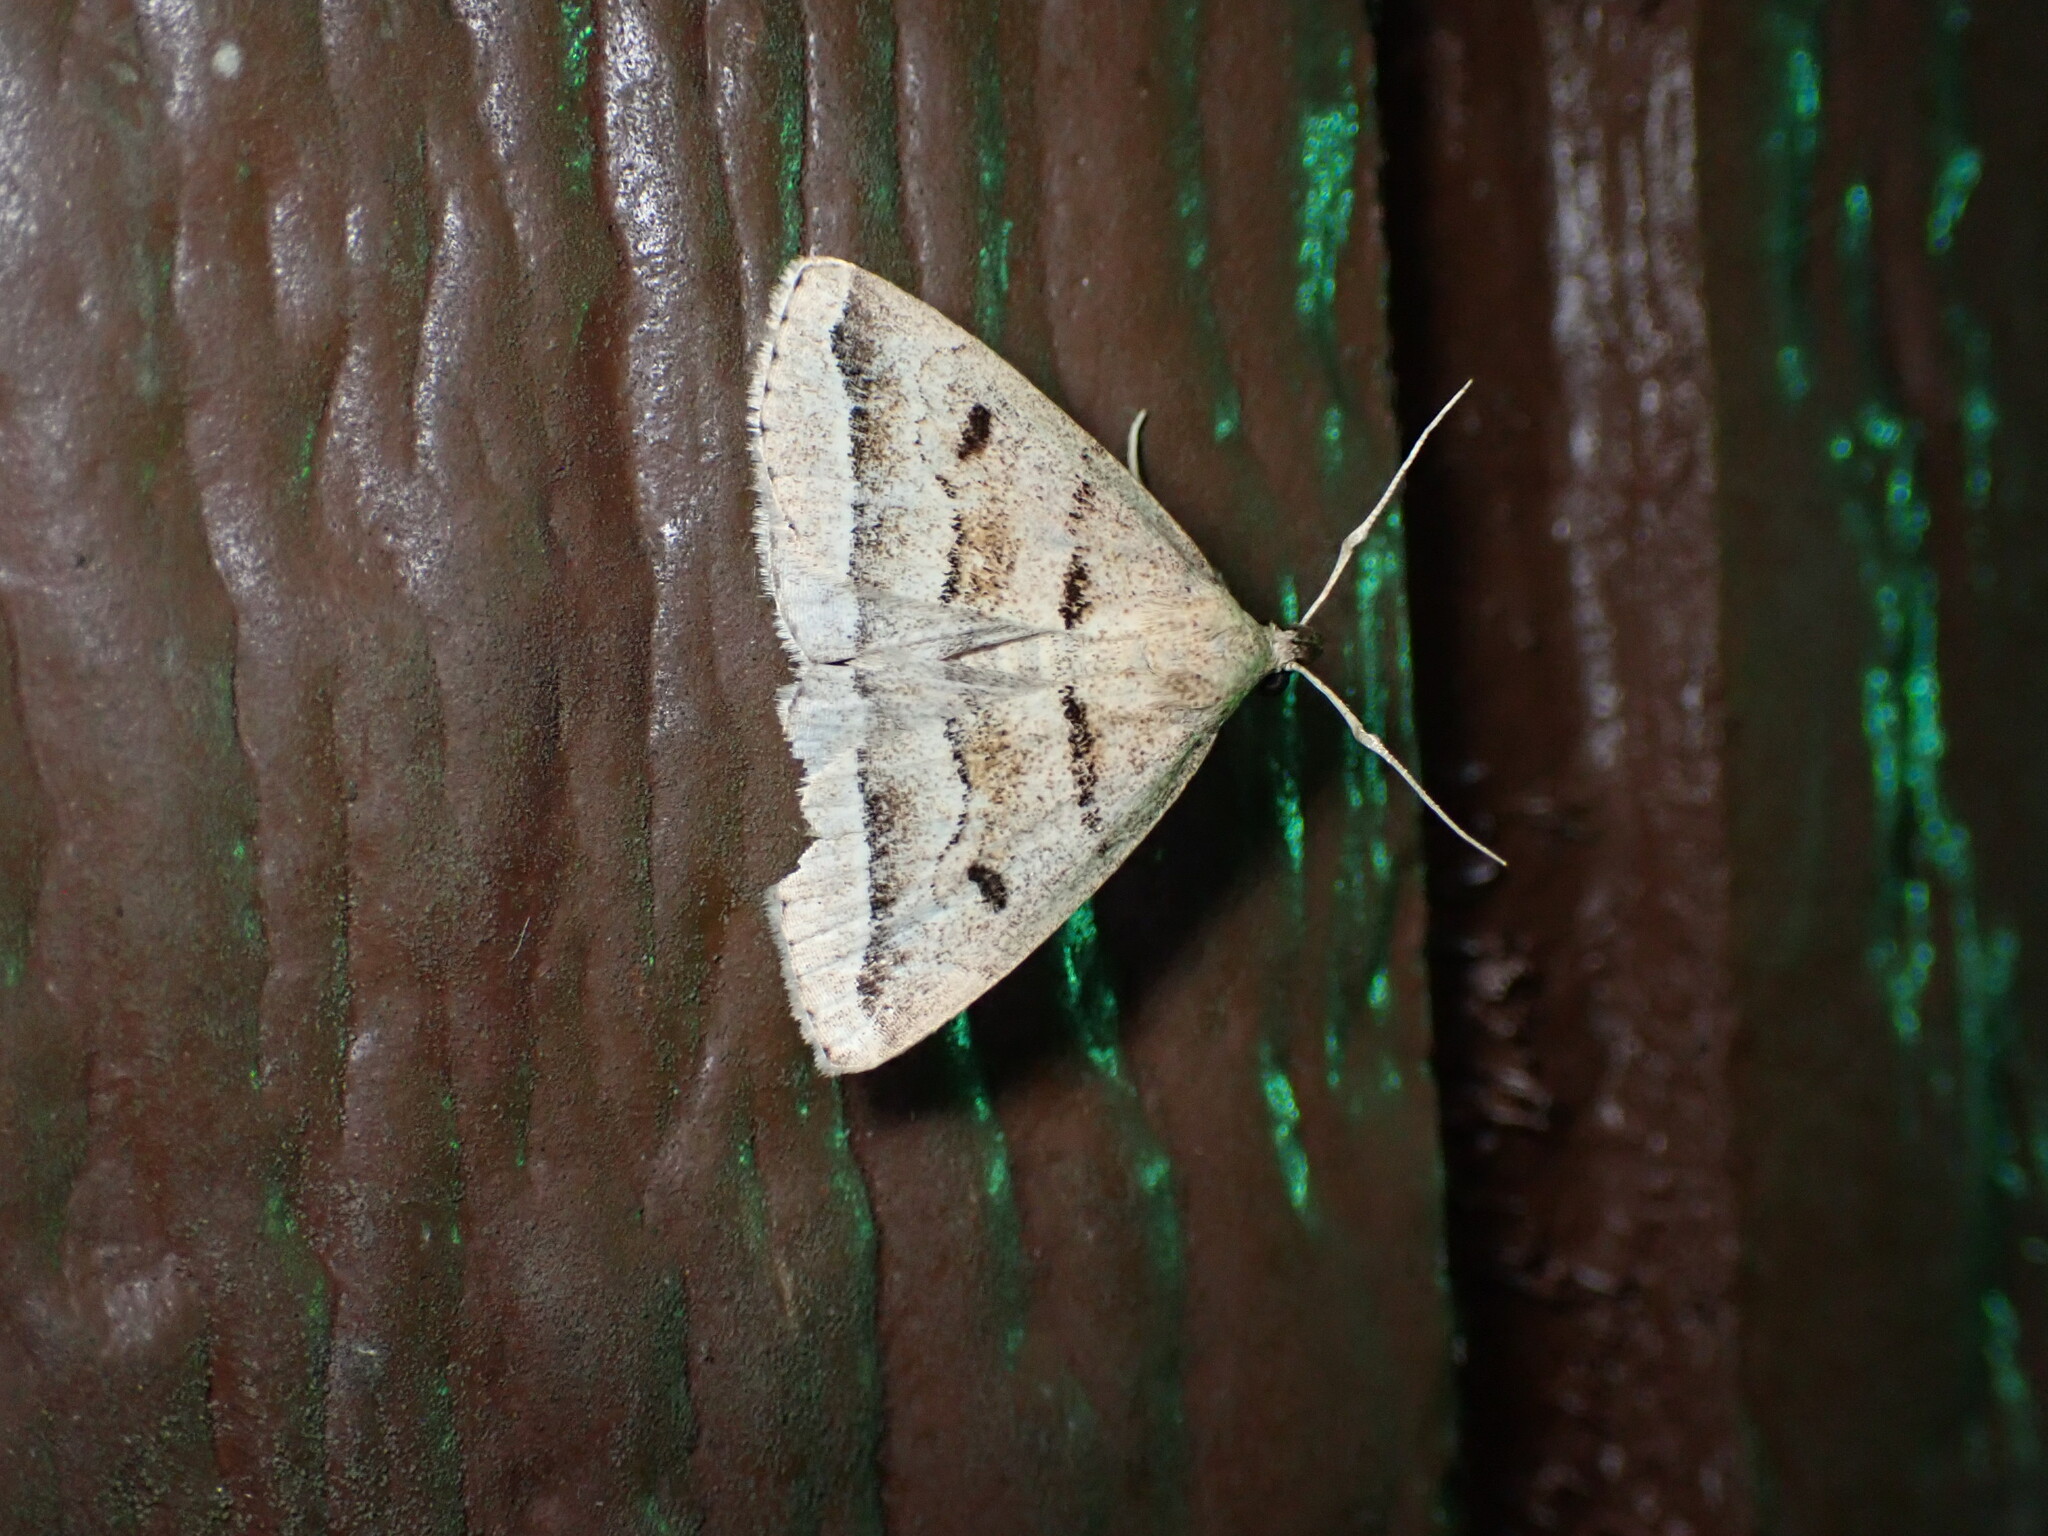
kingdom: Animalia
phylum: Arthropoda
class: Insecta
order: Lepidoptera
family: Erebidae
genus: Zanclognatha
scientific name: Zanclognatha atrilineella
